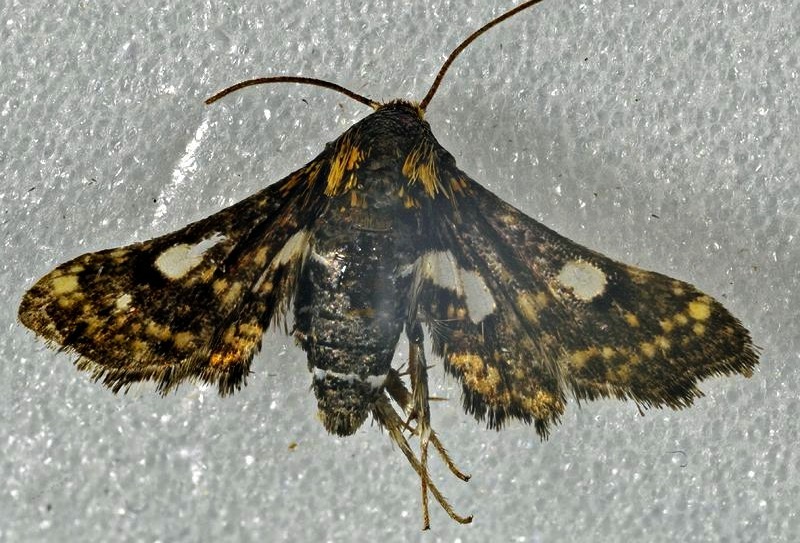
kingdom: Animalia
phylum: Arthropoda
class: Insecta
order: Lepidoptera
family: Thyrididae
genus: Thyris
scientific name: Thyris maculata
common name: Spotted thyris moth
